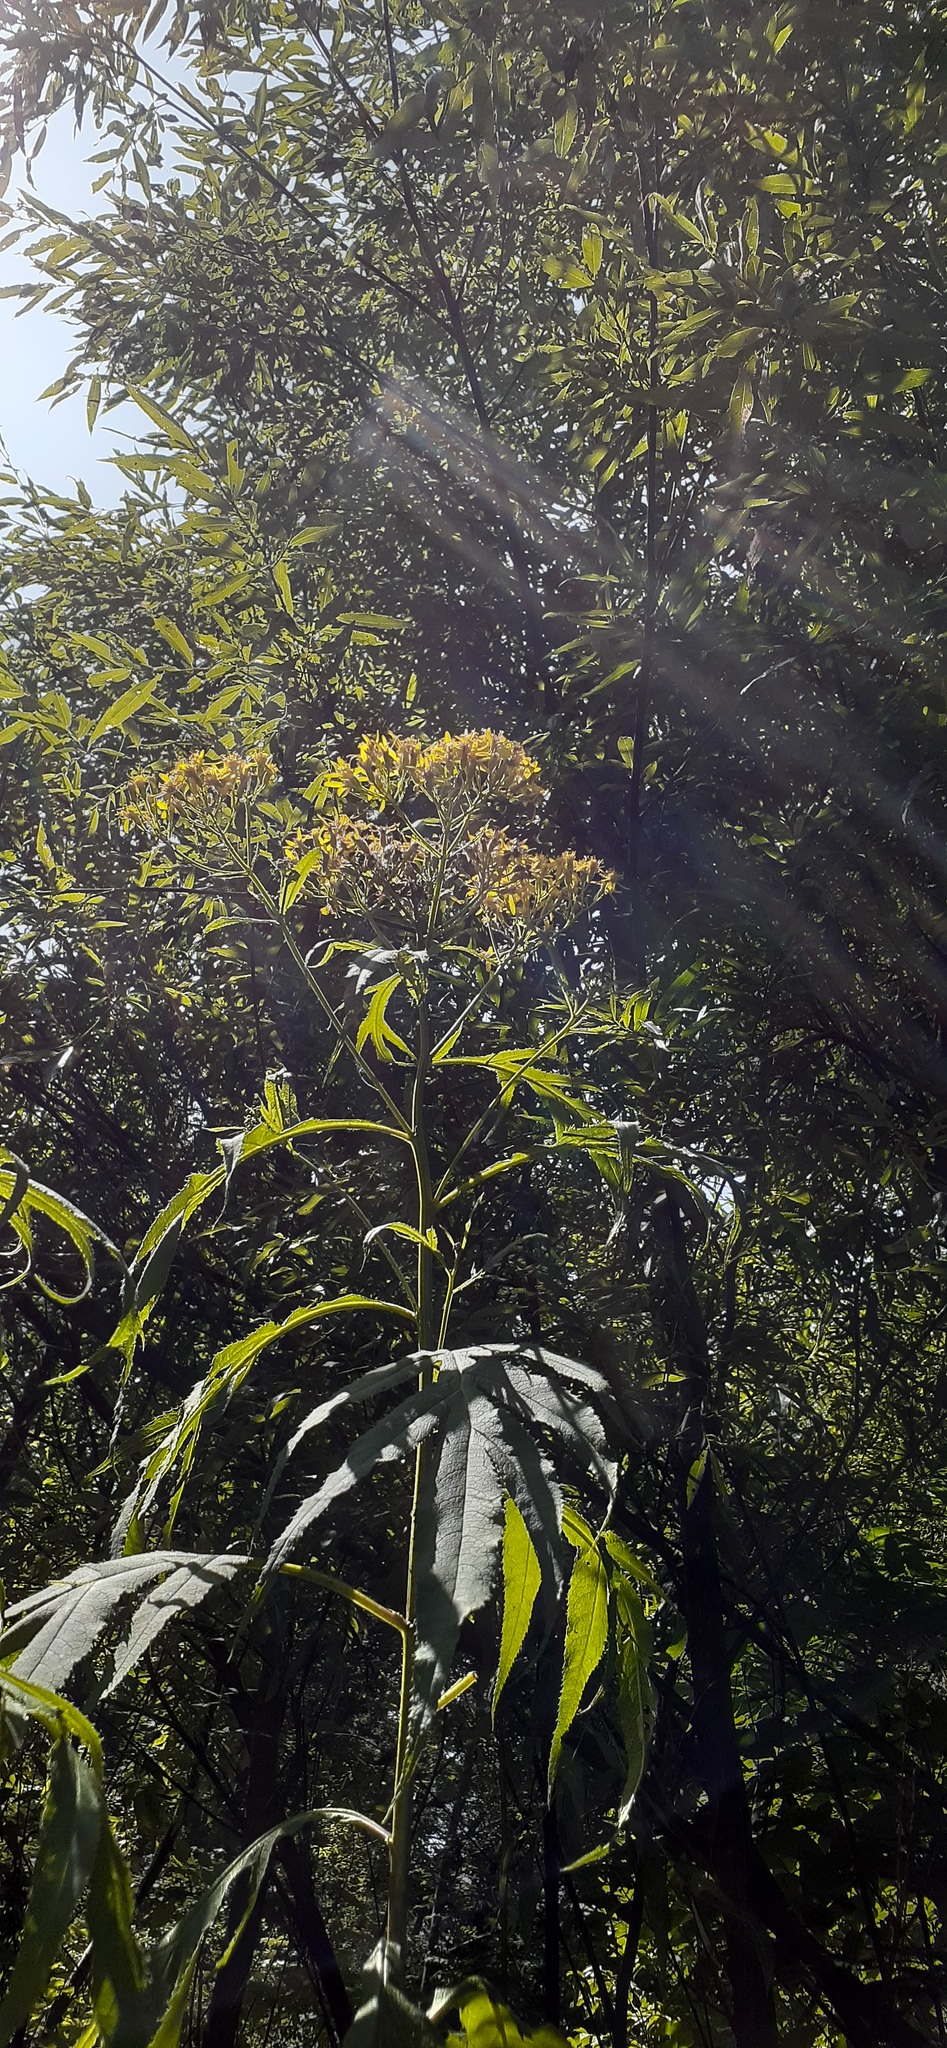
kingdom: Plantae
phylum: Tracheophyta
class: Magnoliopsida
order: Asterales
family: Asteraceae
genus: Jacobaea
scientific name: Jacobaea cannabifolia
